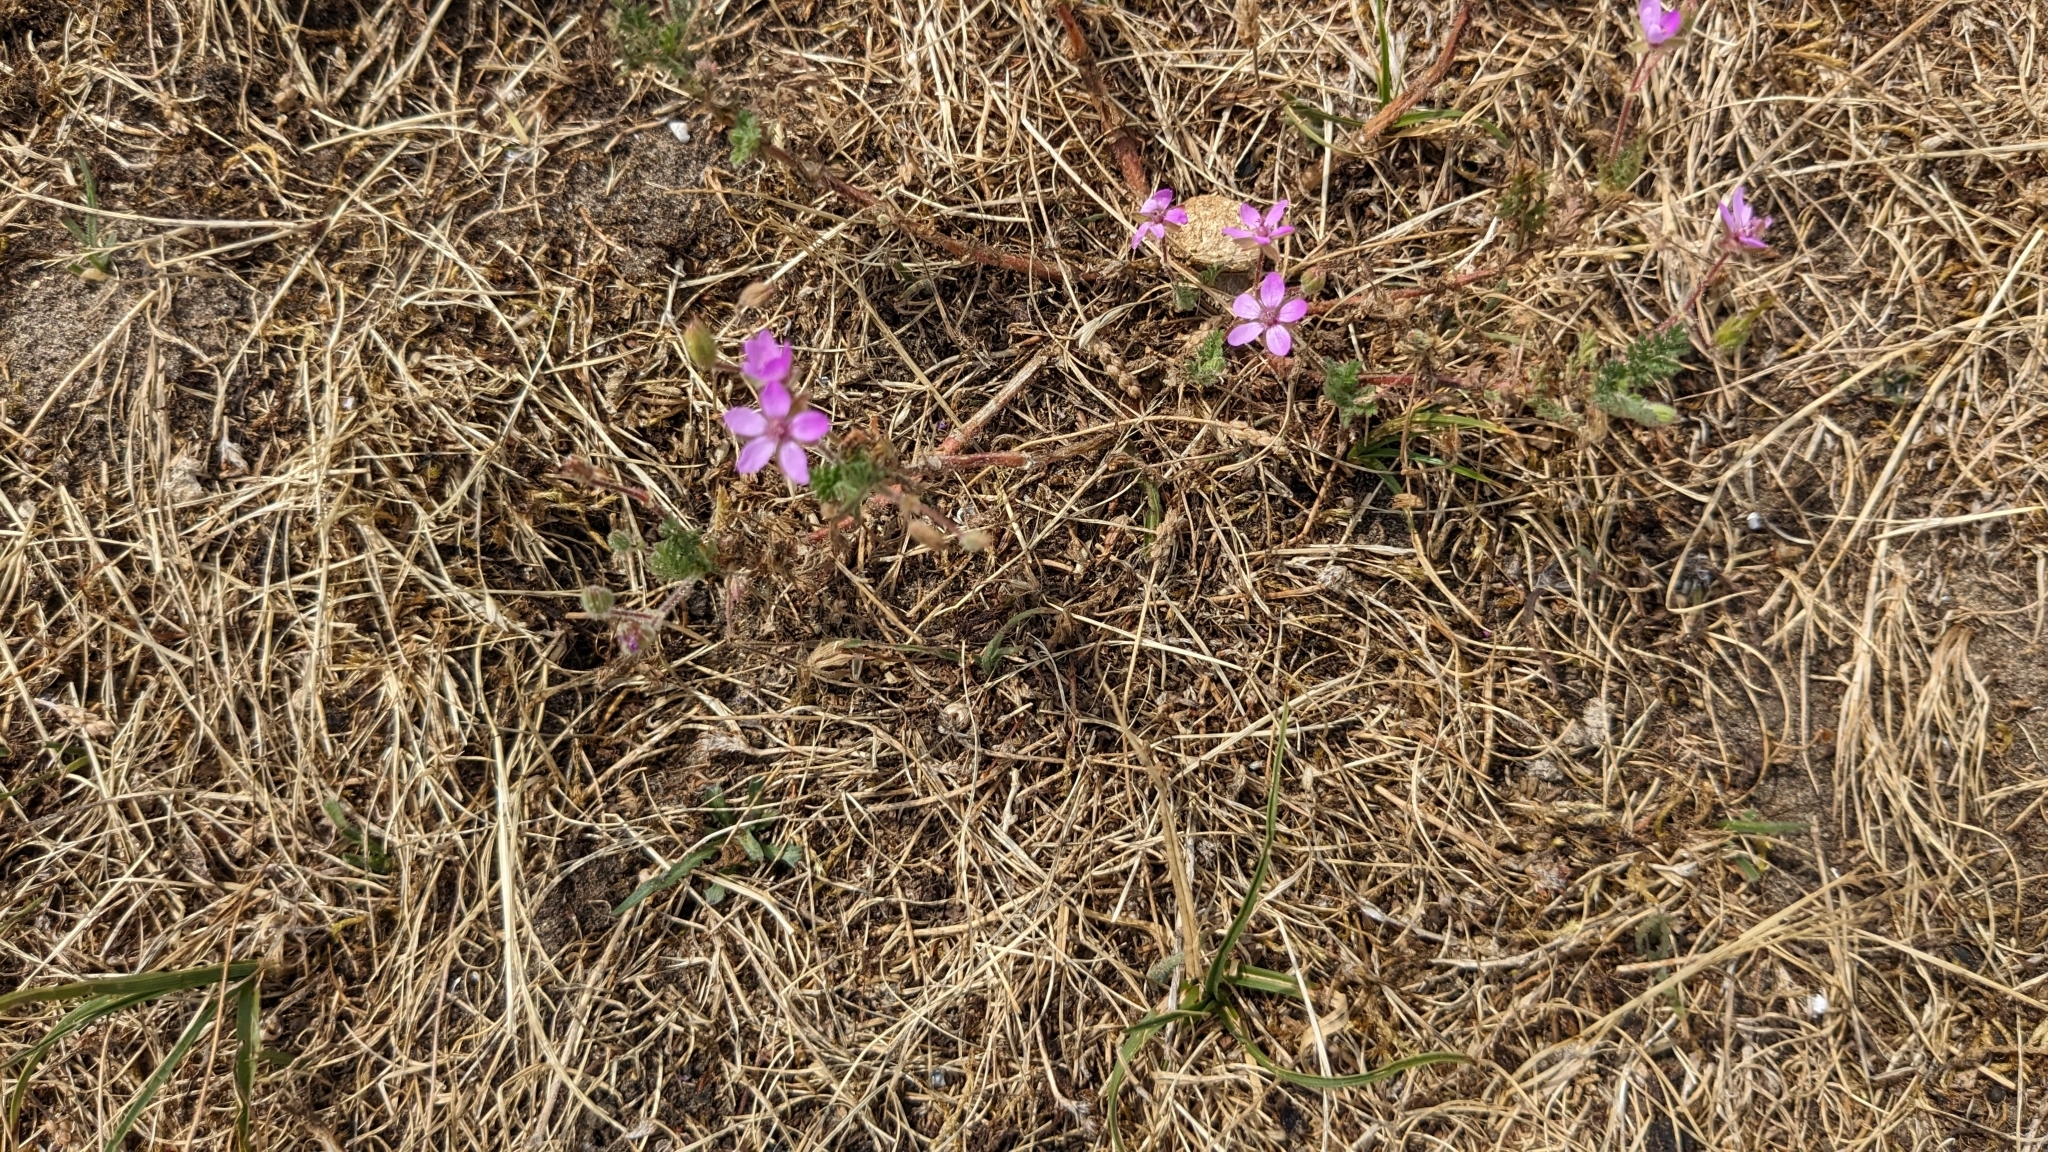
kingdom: Plantae
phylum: Tracheophyta
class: Magnoliopsida
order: Geraniales
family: Geraniaceae
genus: Erodium
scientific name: Erodium cicutarium
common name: Common stork's-bill
